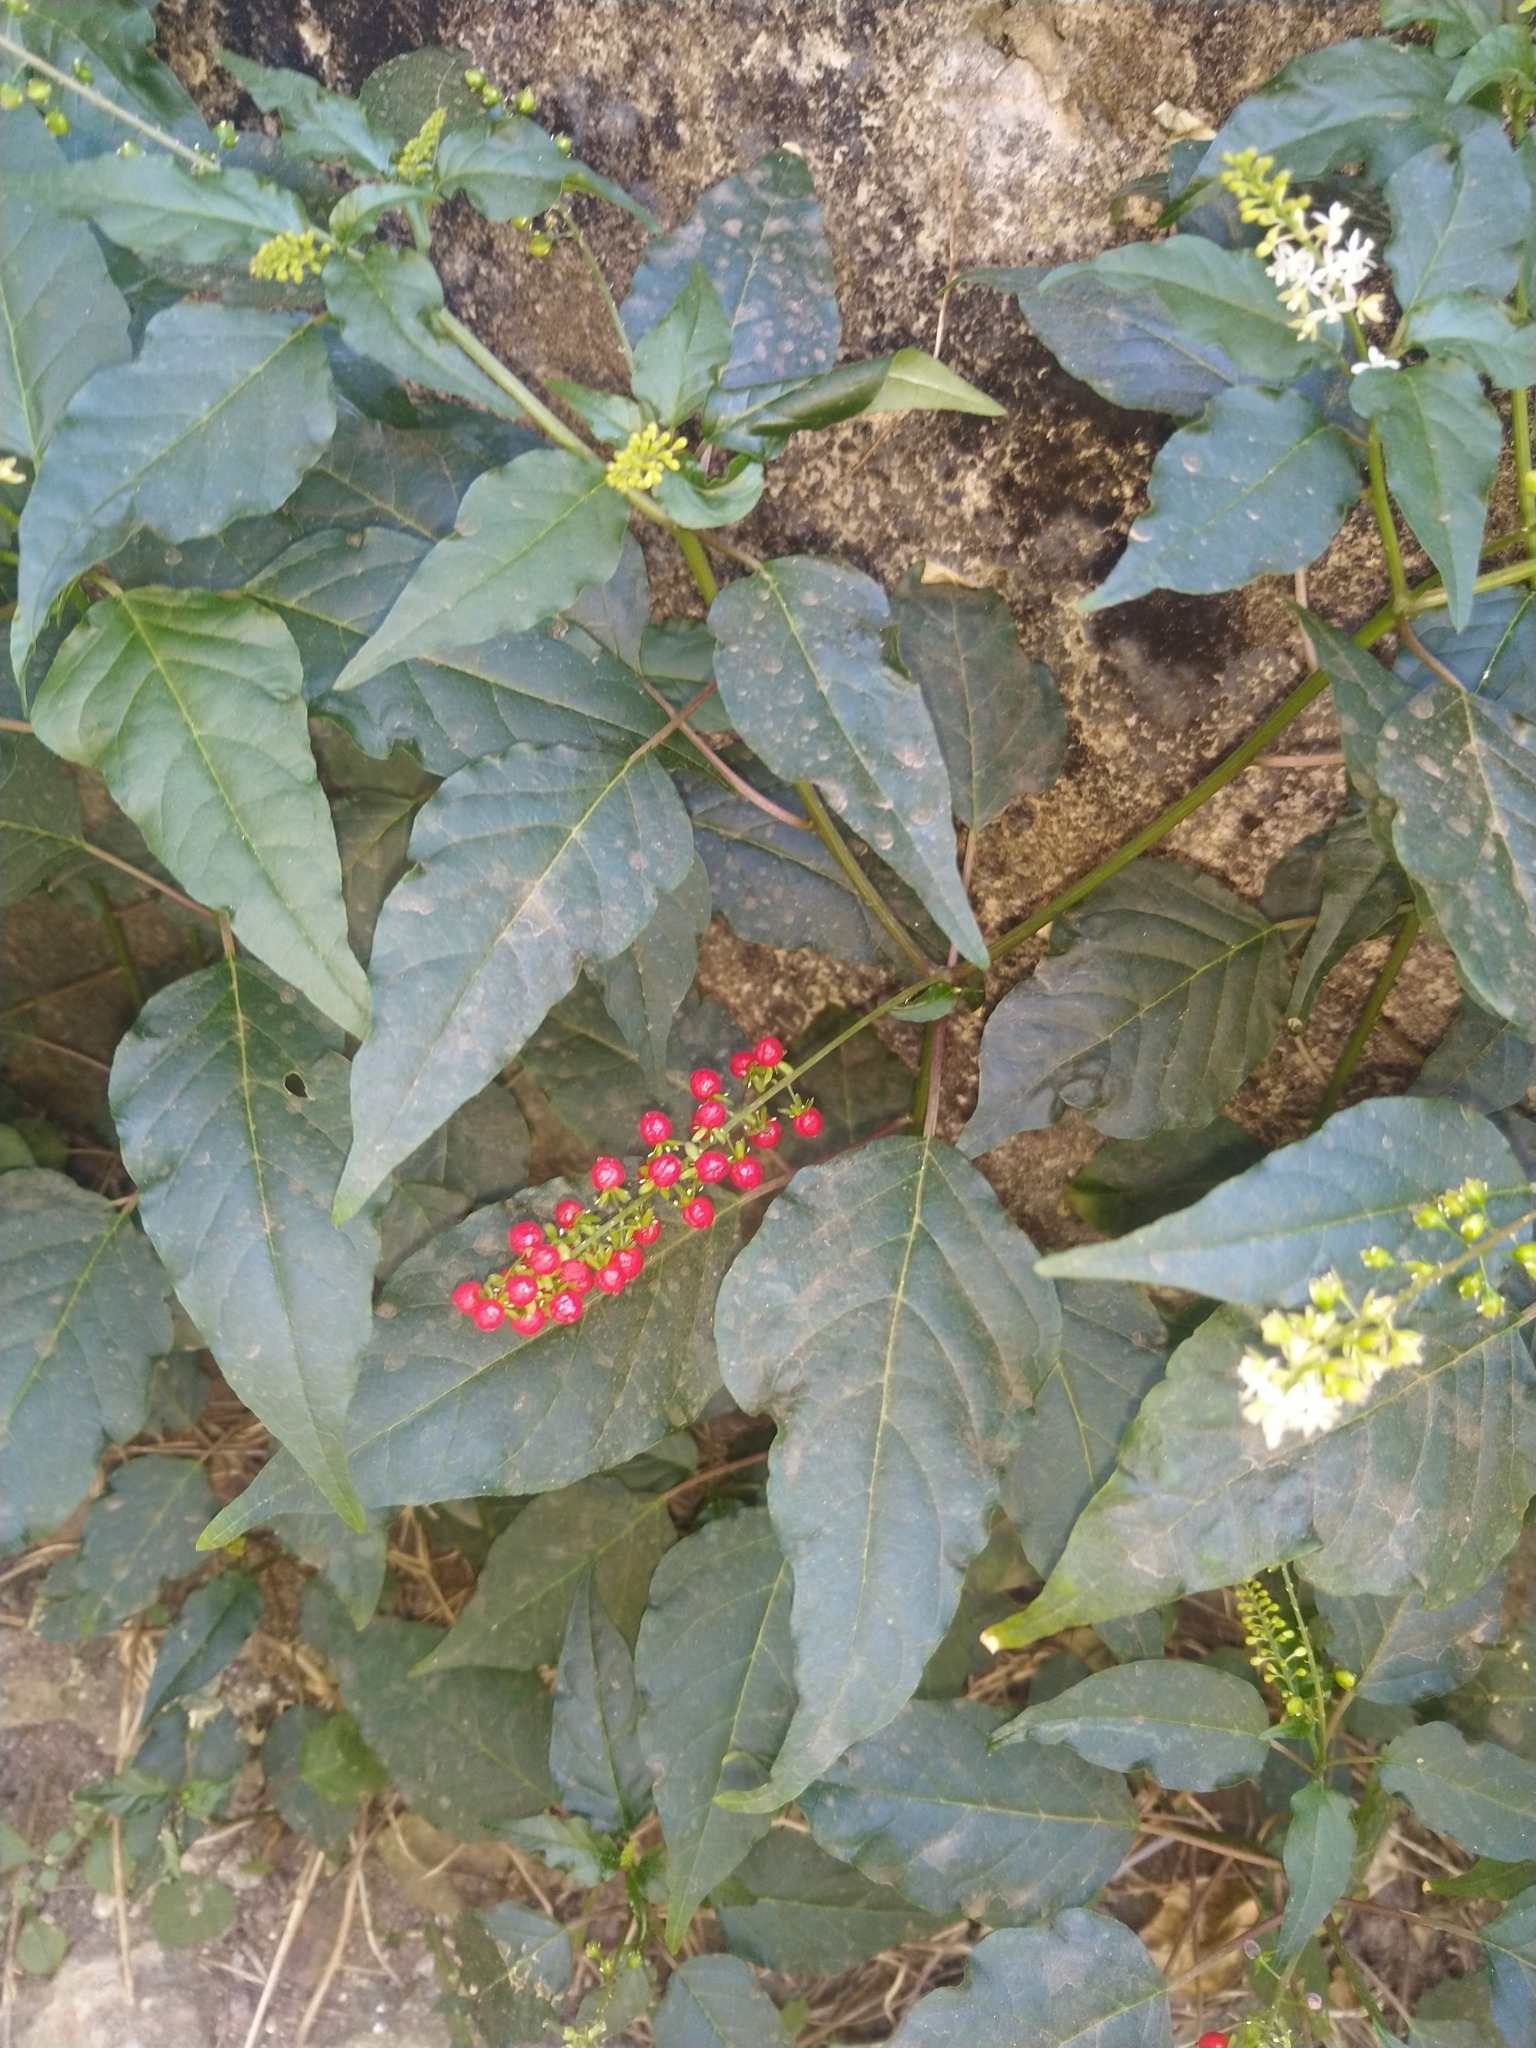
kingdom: Plantae
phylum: Tracheophyta
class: Magnoliopsida
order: Caryophyllales
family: Phytolaccaceae
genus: Rivina
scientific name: Rivina humilis
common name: Rougeplant
